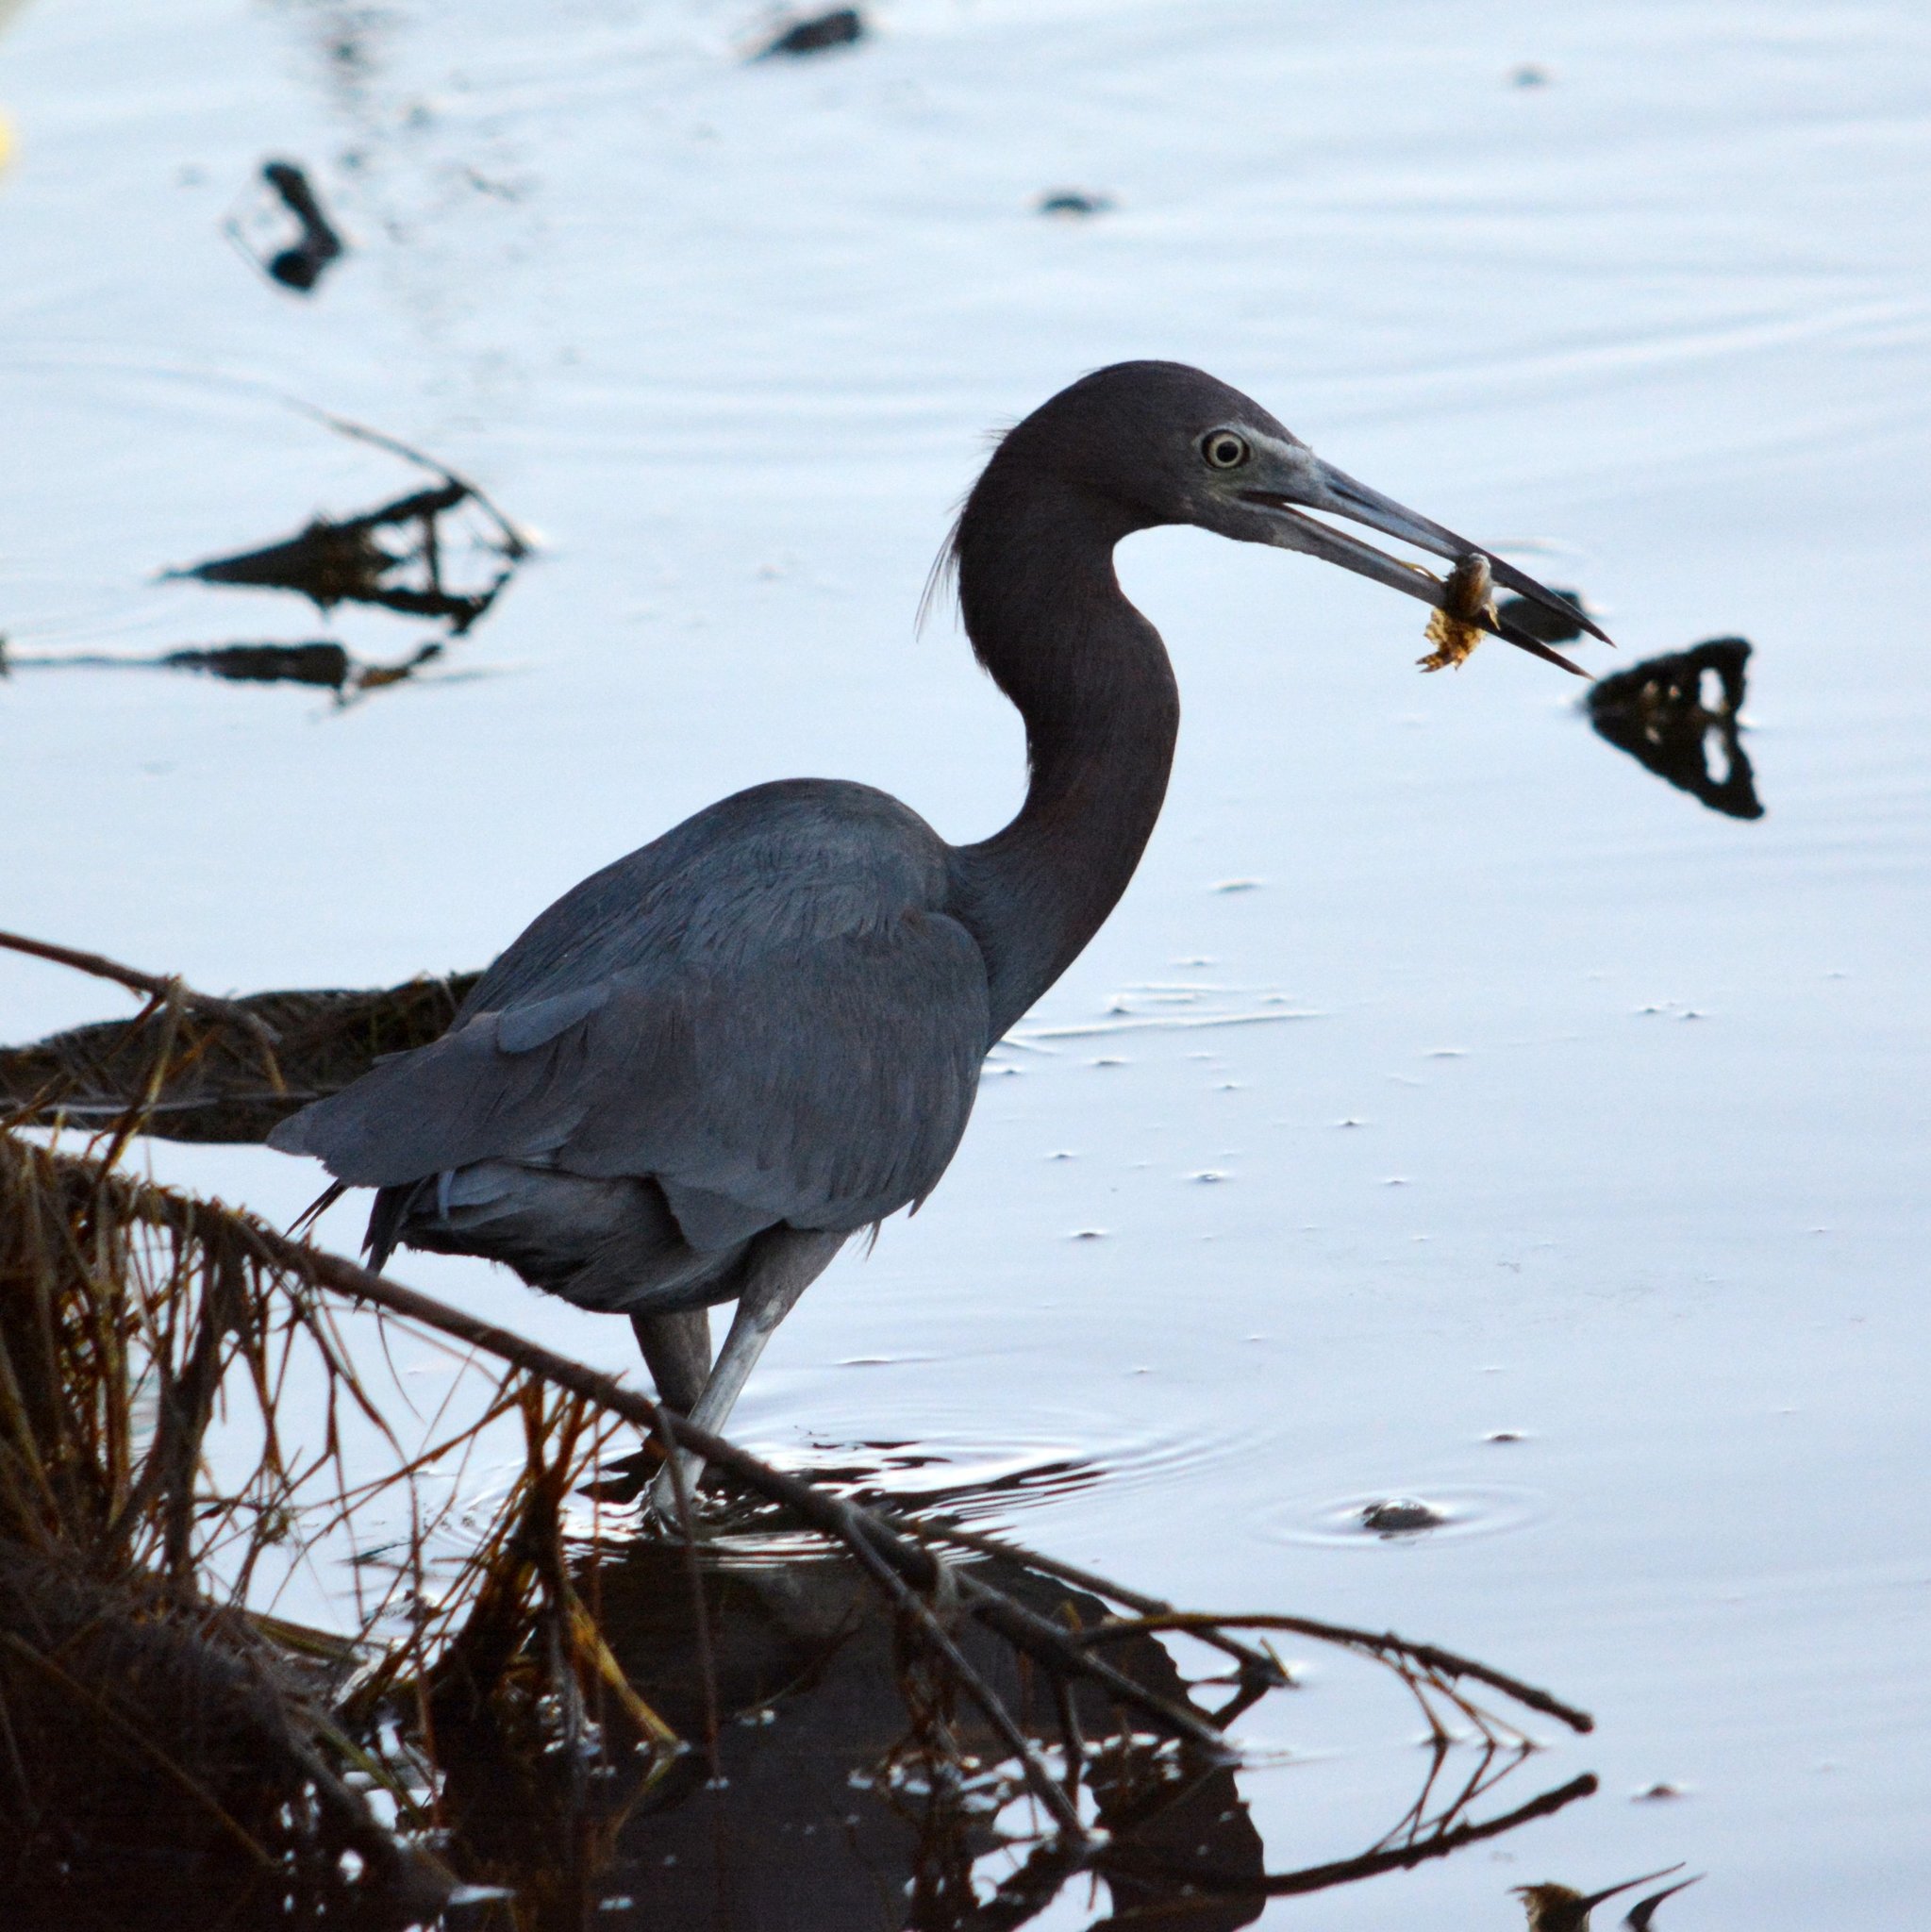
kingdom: Animalia
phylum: Chordata
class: Aves
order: Pelecaniformes
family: Ardeidae
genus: Egretta
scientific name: Egretta caerulea
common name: Little blue heron
